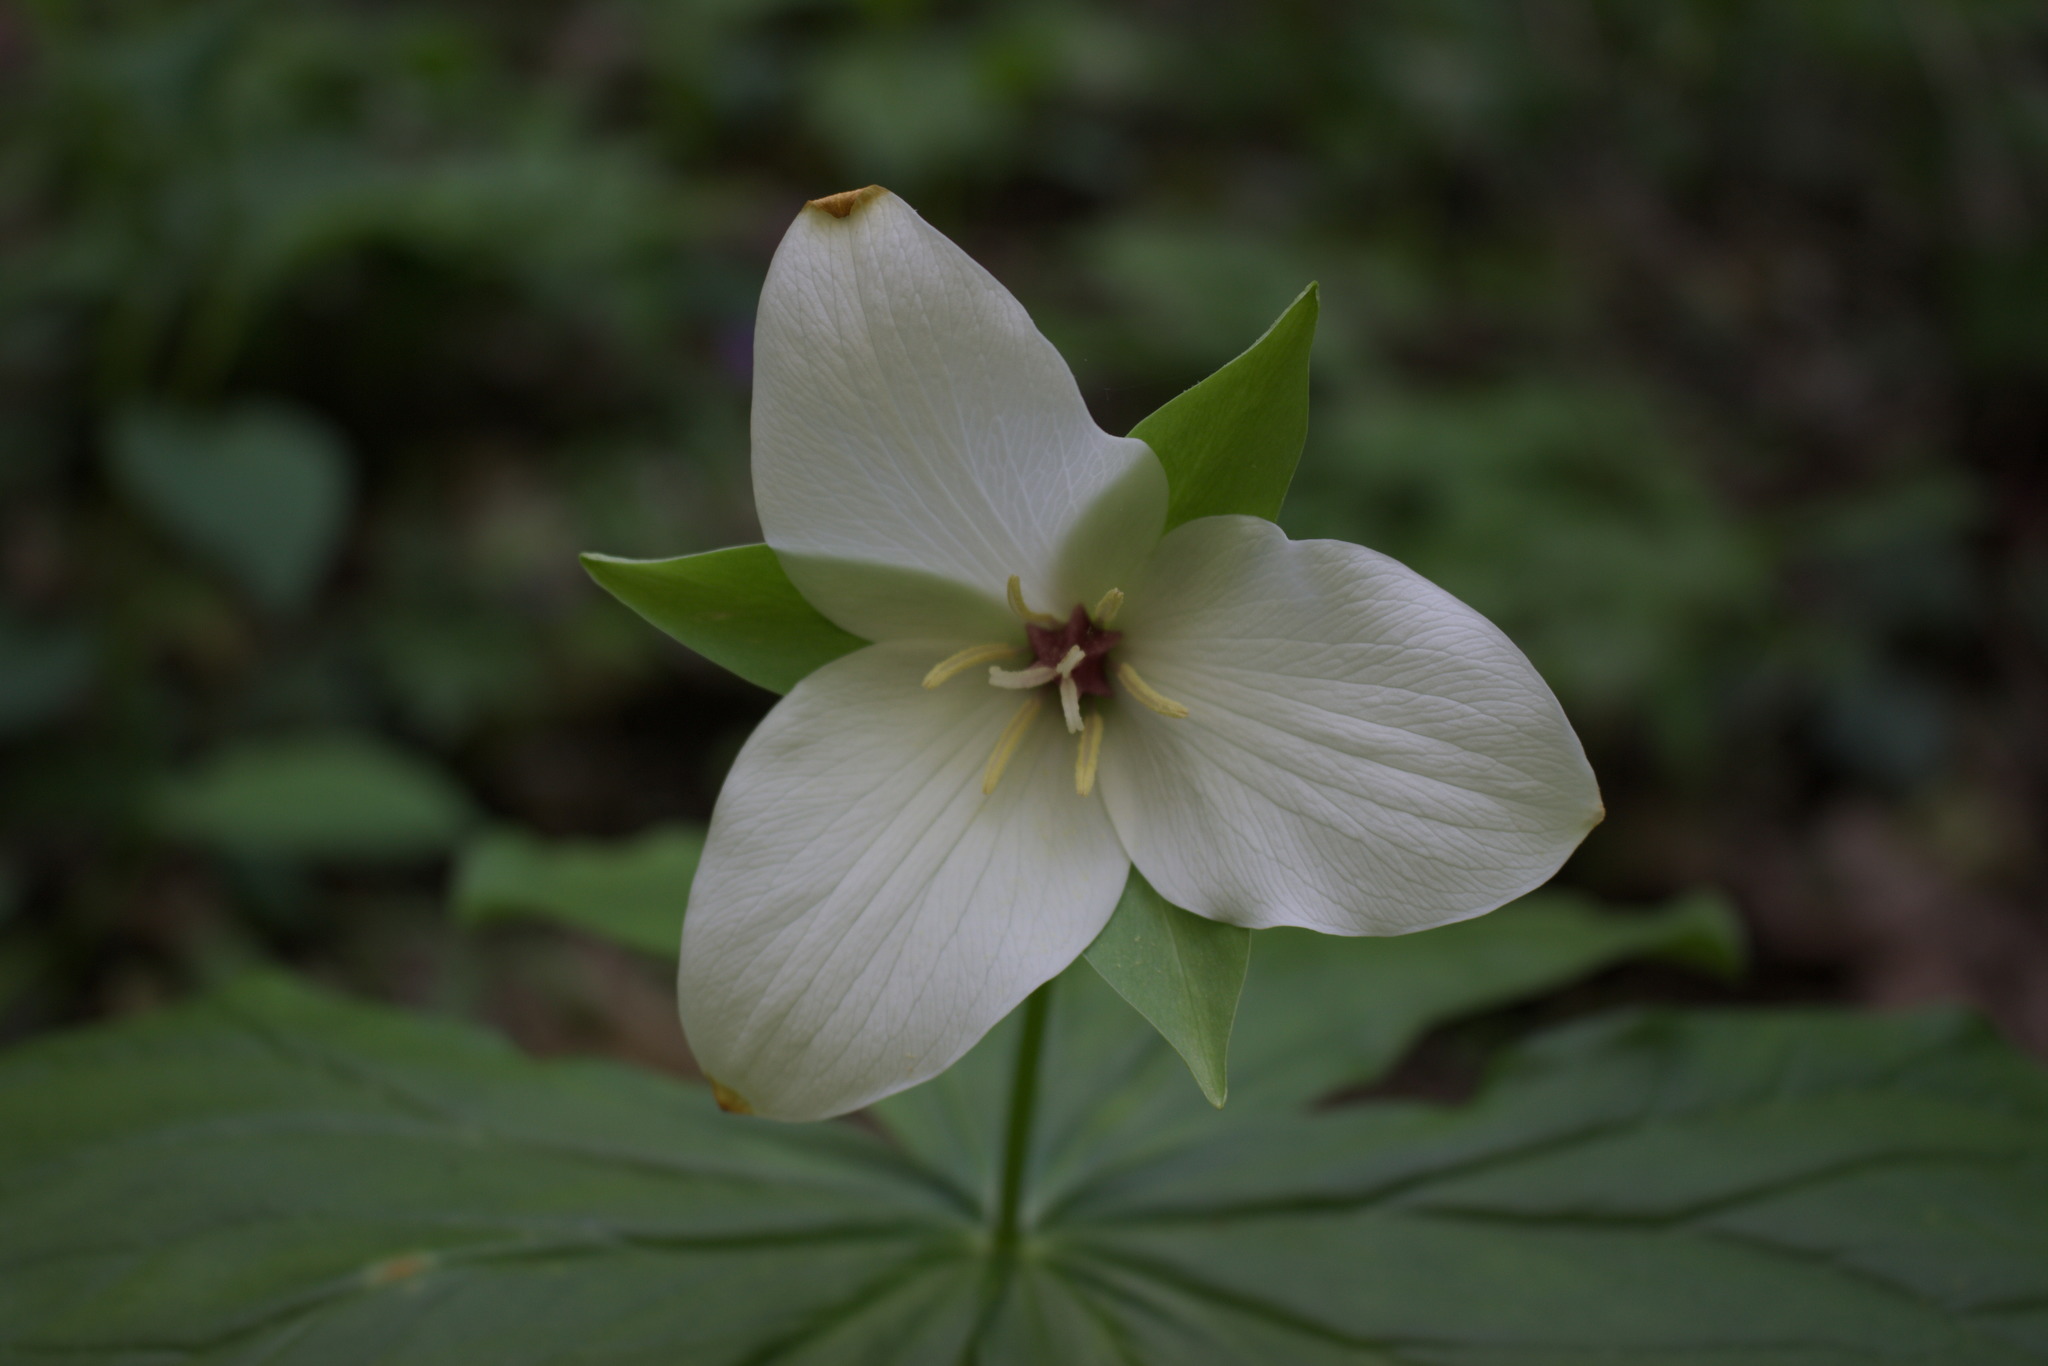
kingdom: Plantae
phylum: Tracheophyta
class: Liliopsida
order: Liliales
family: Melanthiaceae
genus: Trillium
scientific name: Trillium flexipes
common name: Drooping trillium
